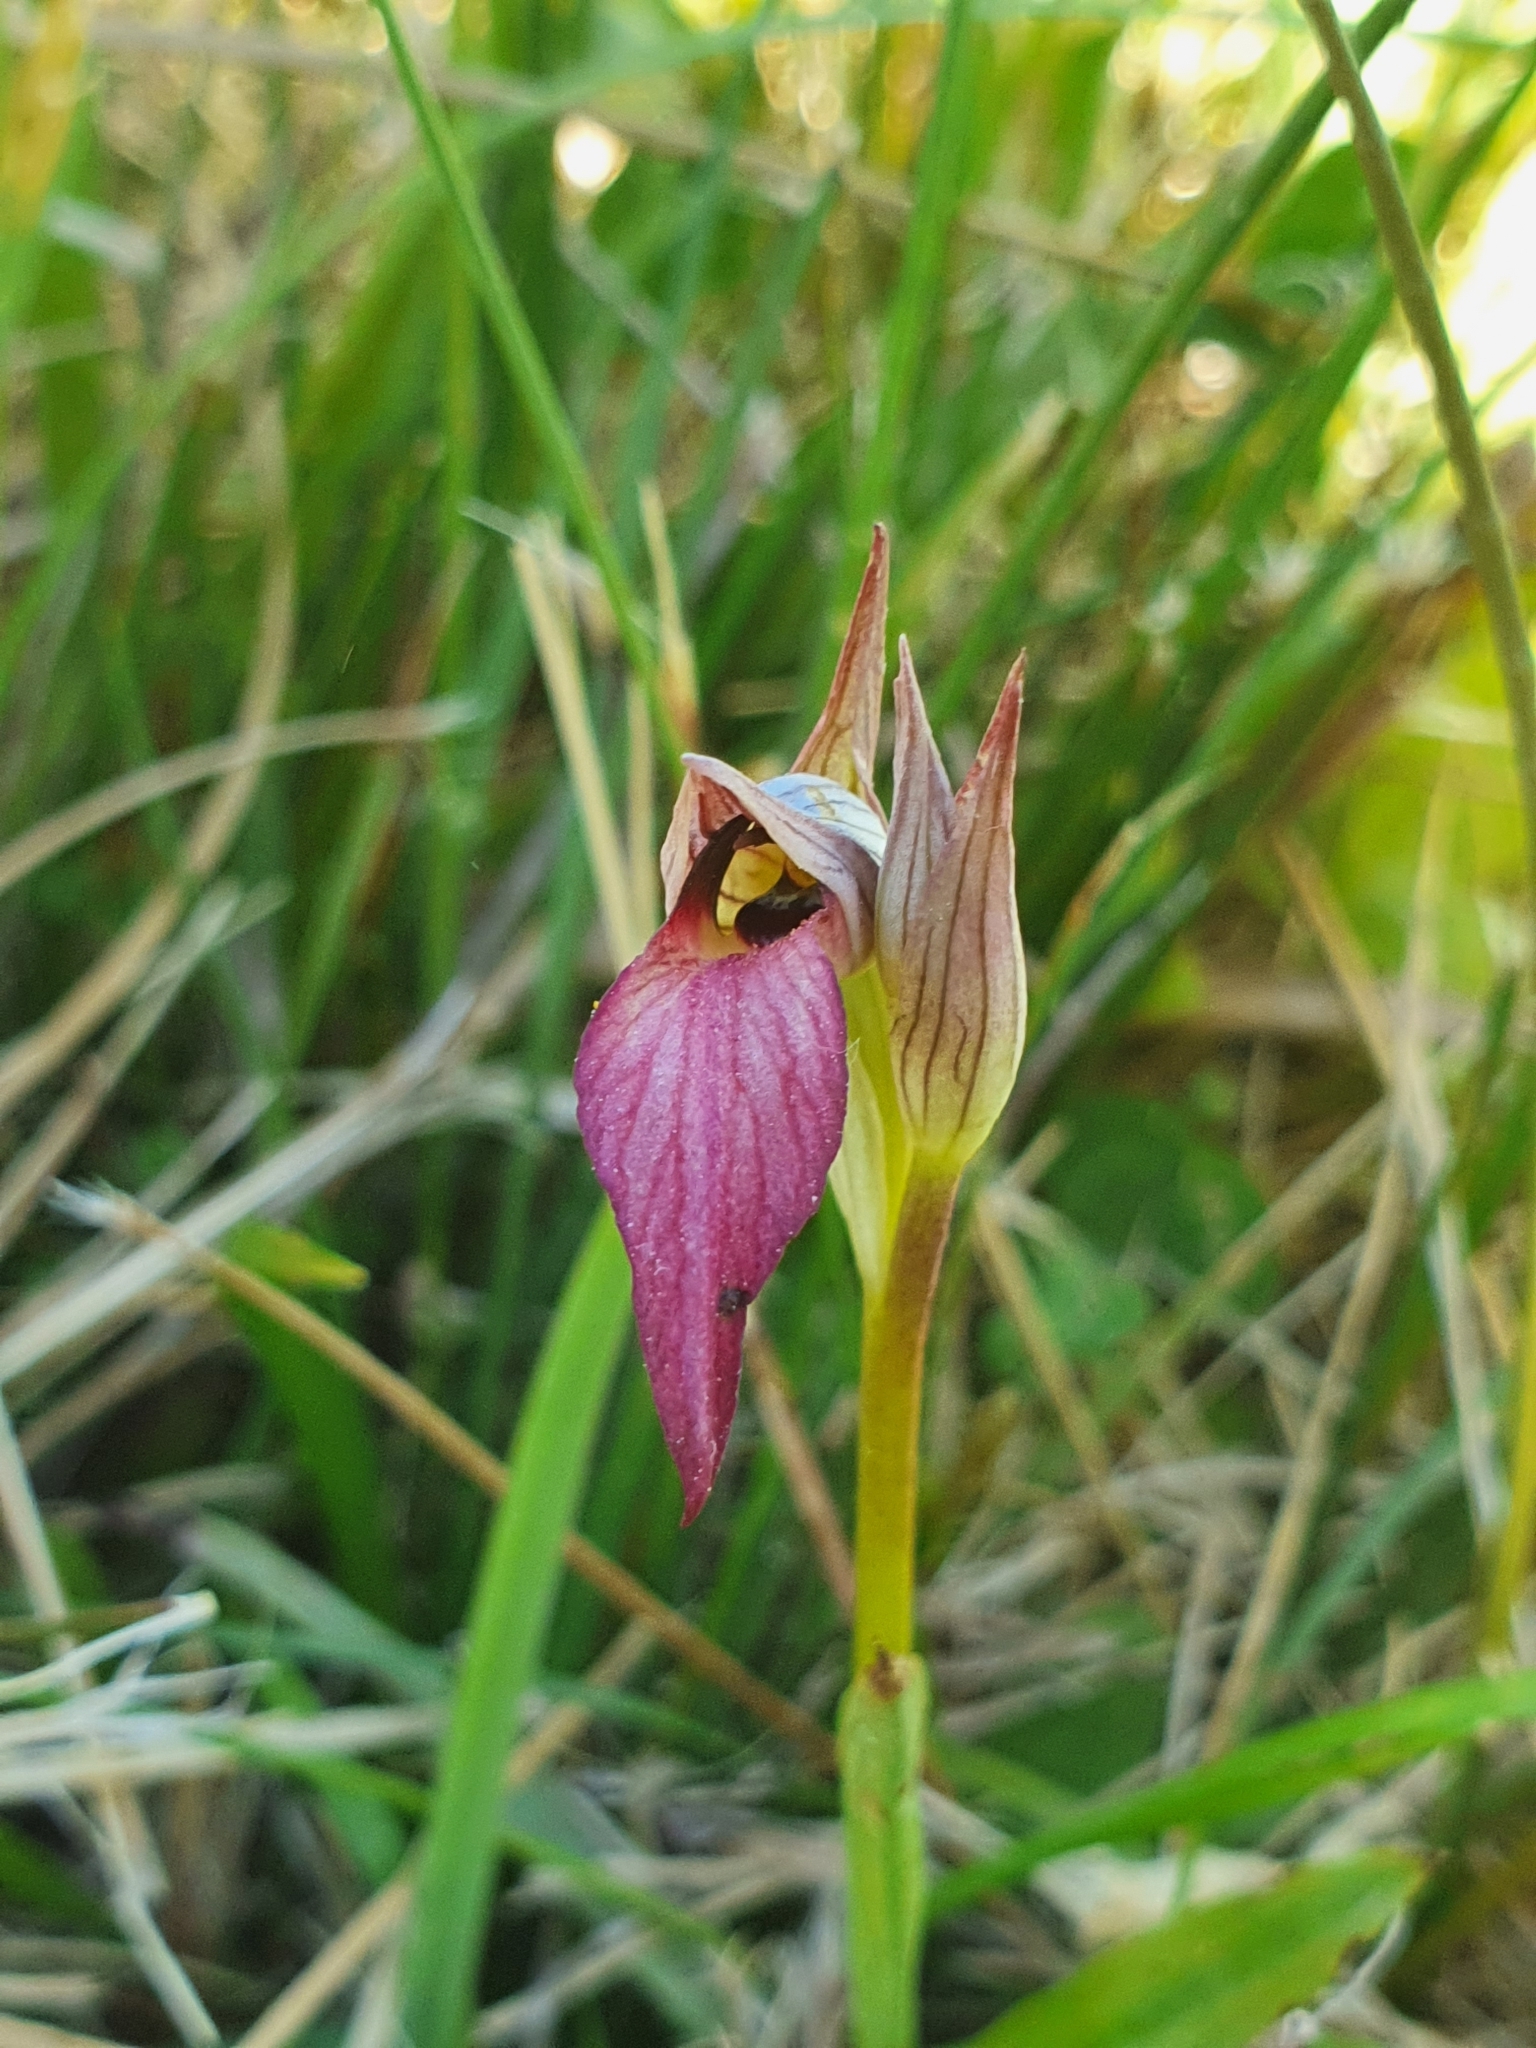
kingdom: Plantae
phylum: Tracheophyta
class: Liliopsida
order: Asparagales
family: Orchidaceae
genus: Serapias
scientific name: Serapias lingua
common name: Tongue-orchid
